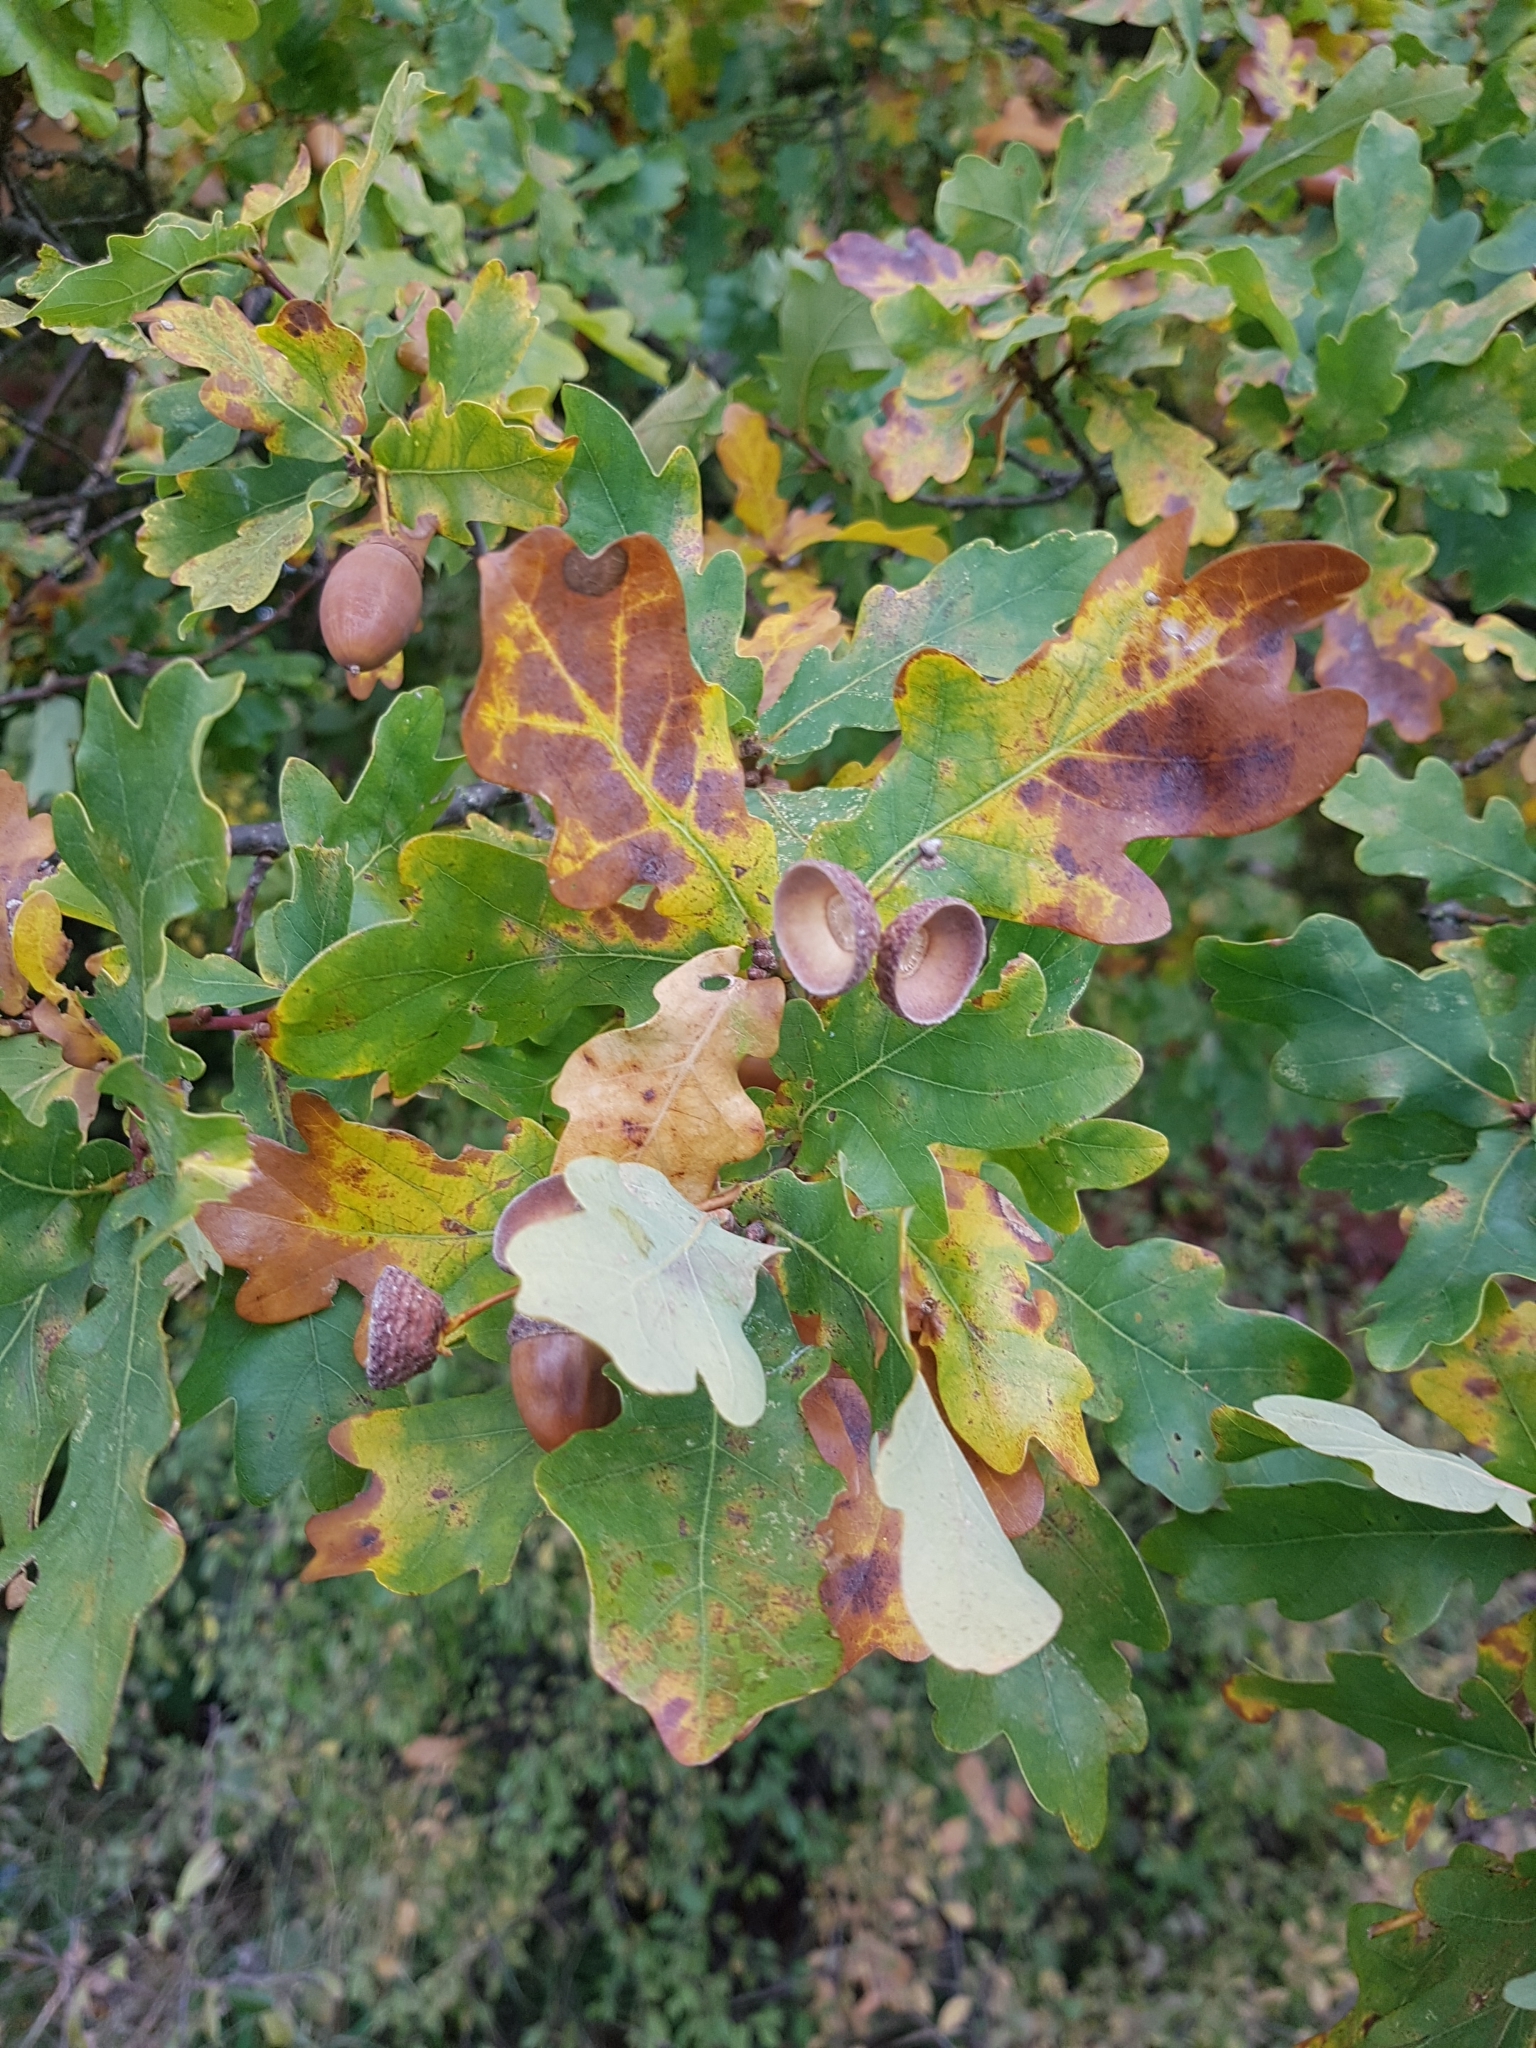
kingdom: Plantae
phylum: Tracheophyta
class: Magnoliopsida
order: Fagales
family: Fagaceae
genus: Quercus
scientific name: Quercus robur
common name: Pedunculate oak
